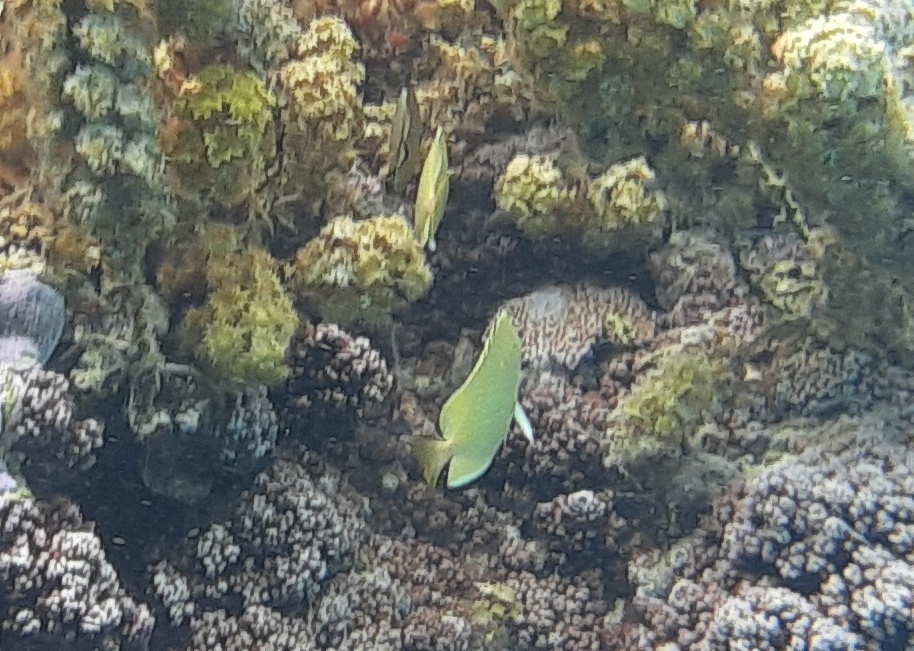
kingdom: Animalia
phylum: Chordata
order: Perciformes
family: Chaetodontidae
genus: Chaetodon
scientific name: Chaetodon citrinellus
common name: Speckled butterflyfish
